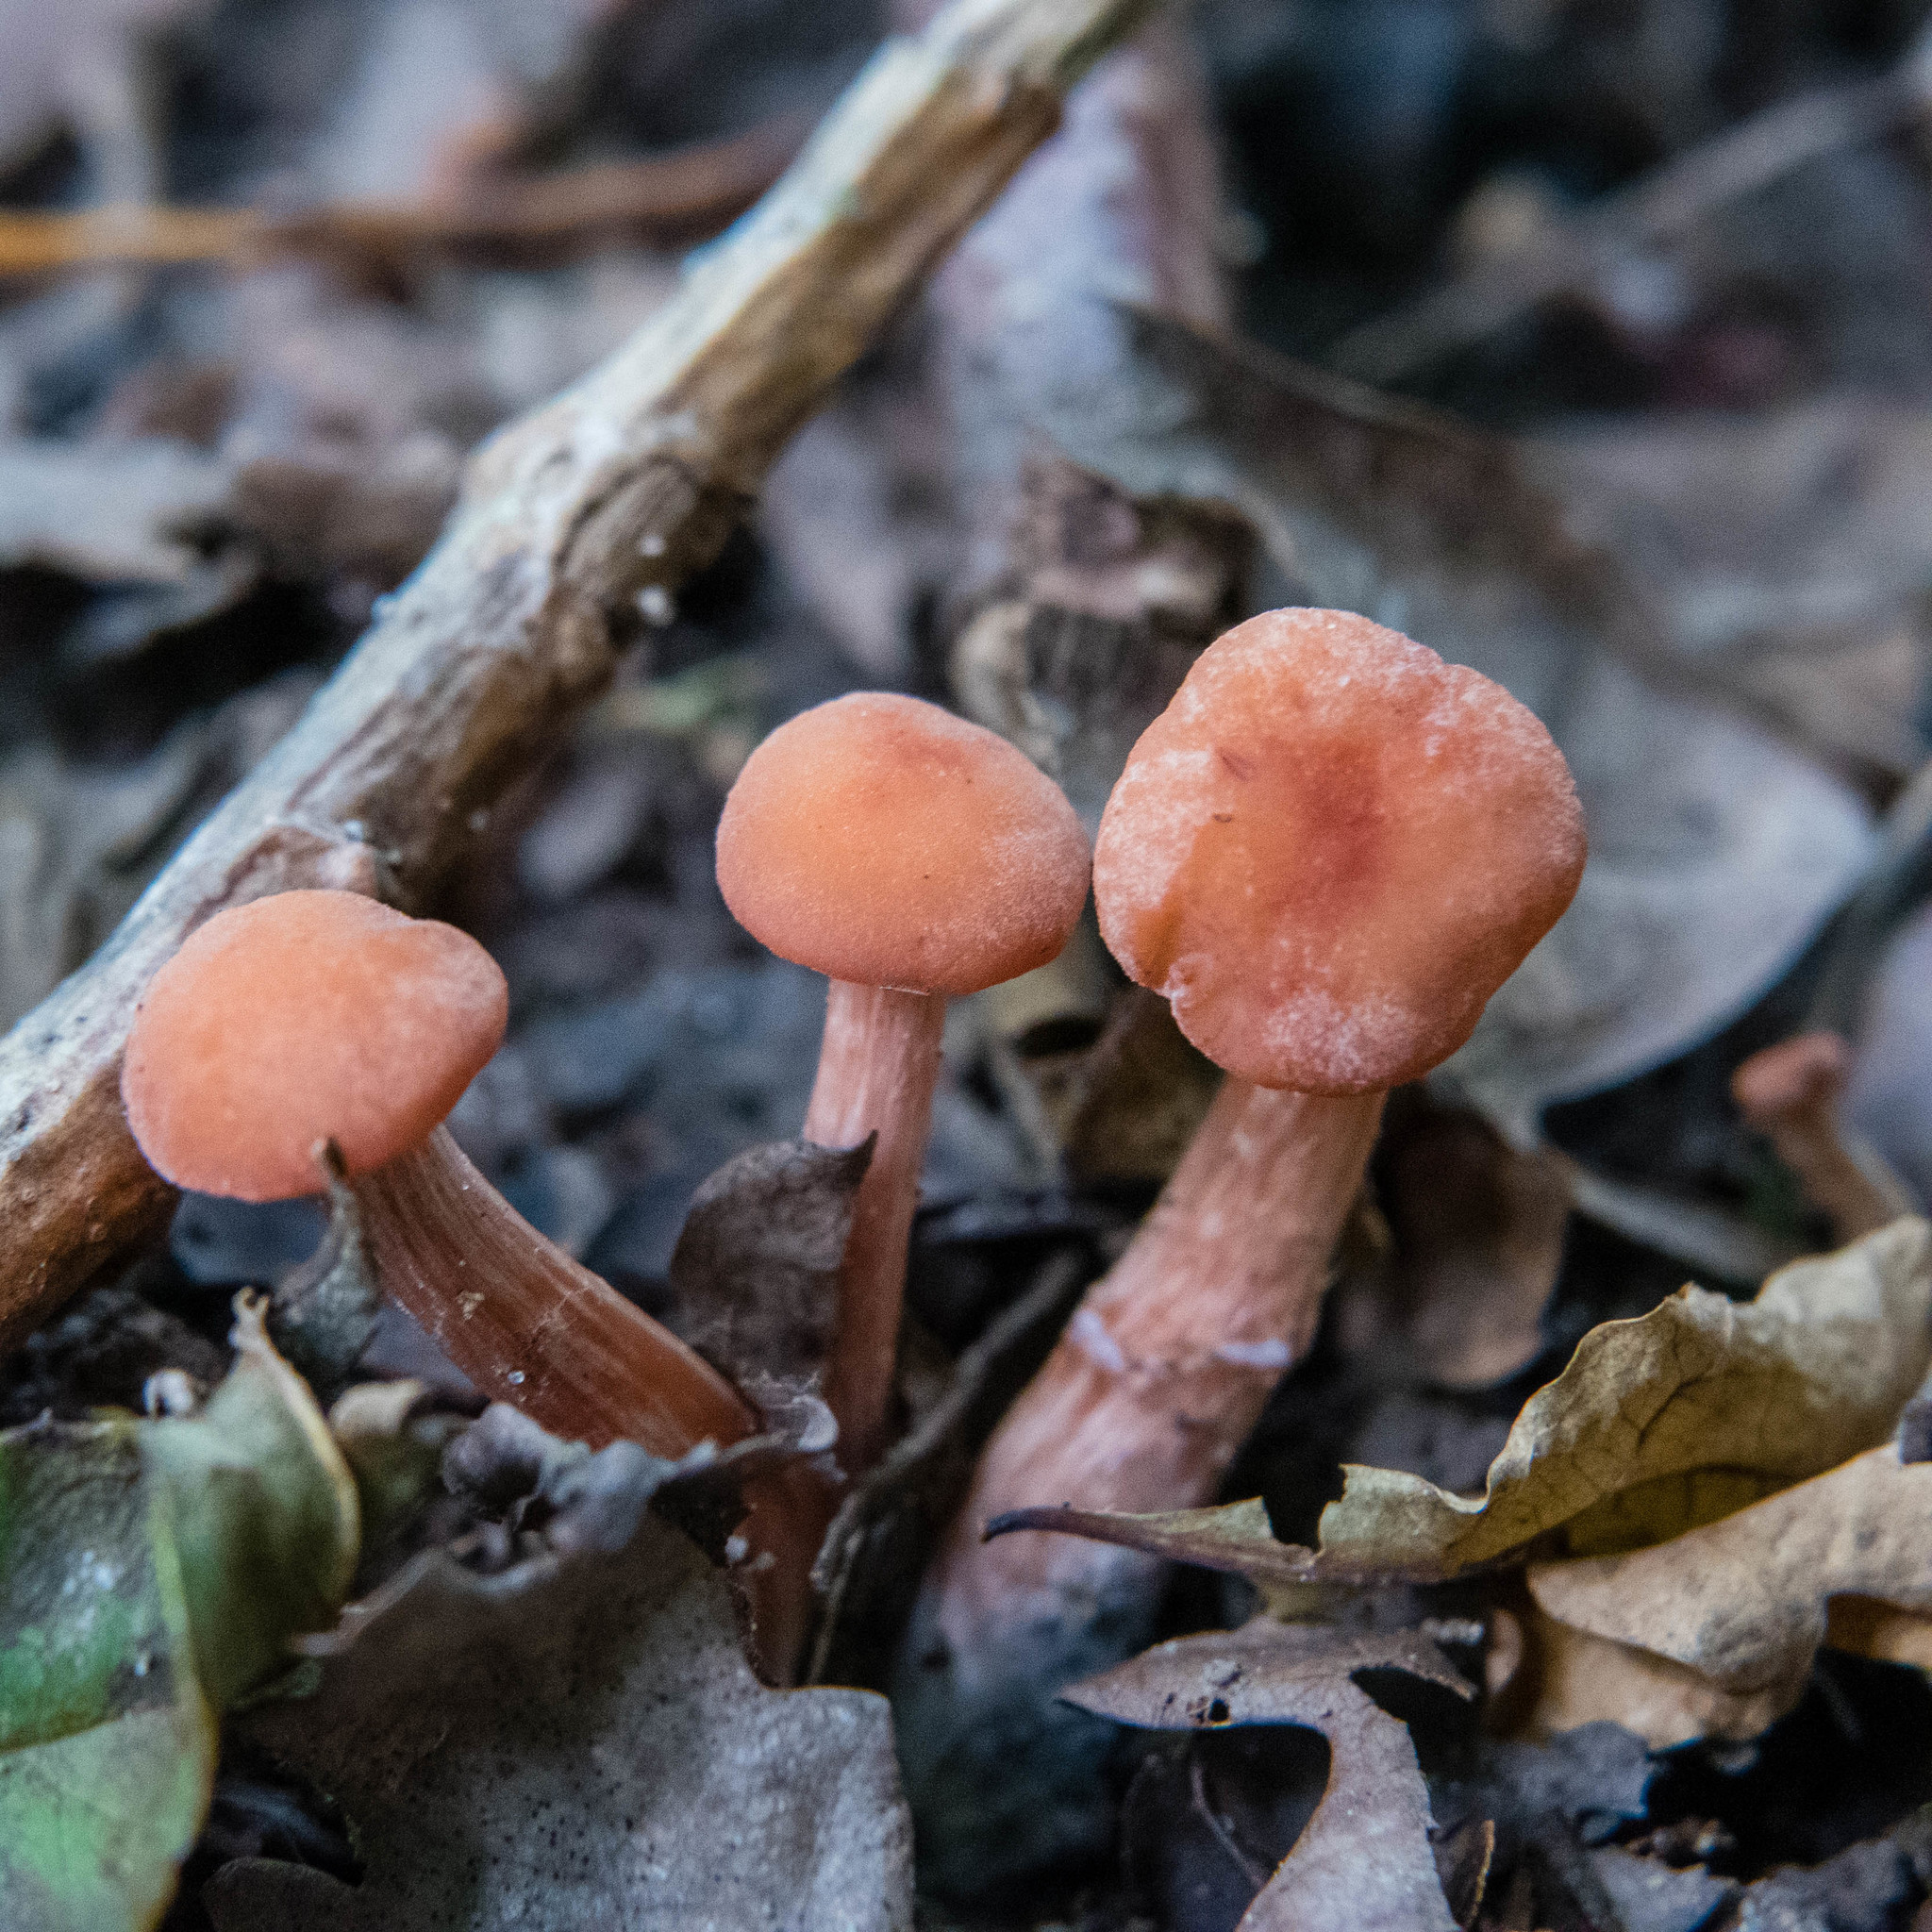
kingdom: Fungi
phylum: Basidiomycota
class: Agaricomycetes
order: Agaricales
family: Hydnangiaceae
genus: Laccaria
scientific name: Laccaria laccata
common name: Deceiver
